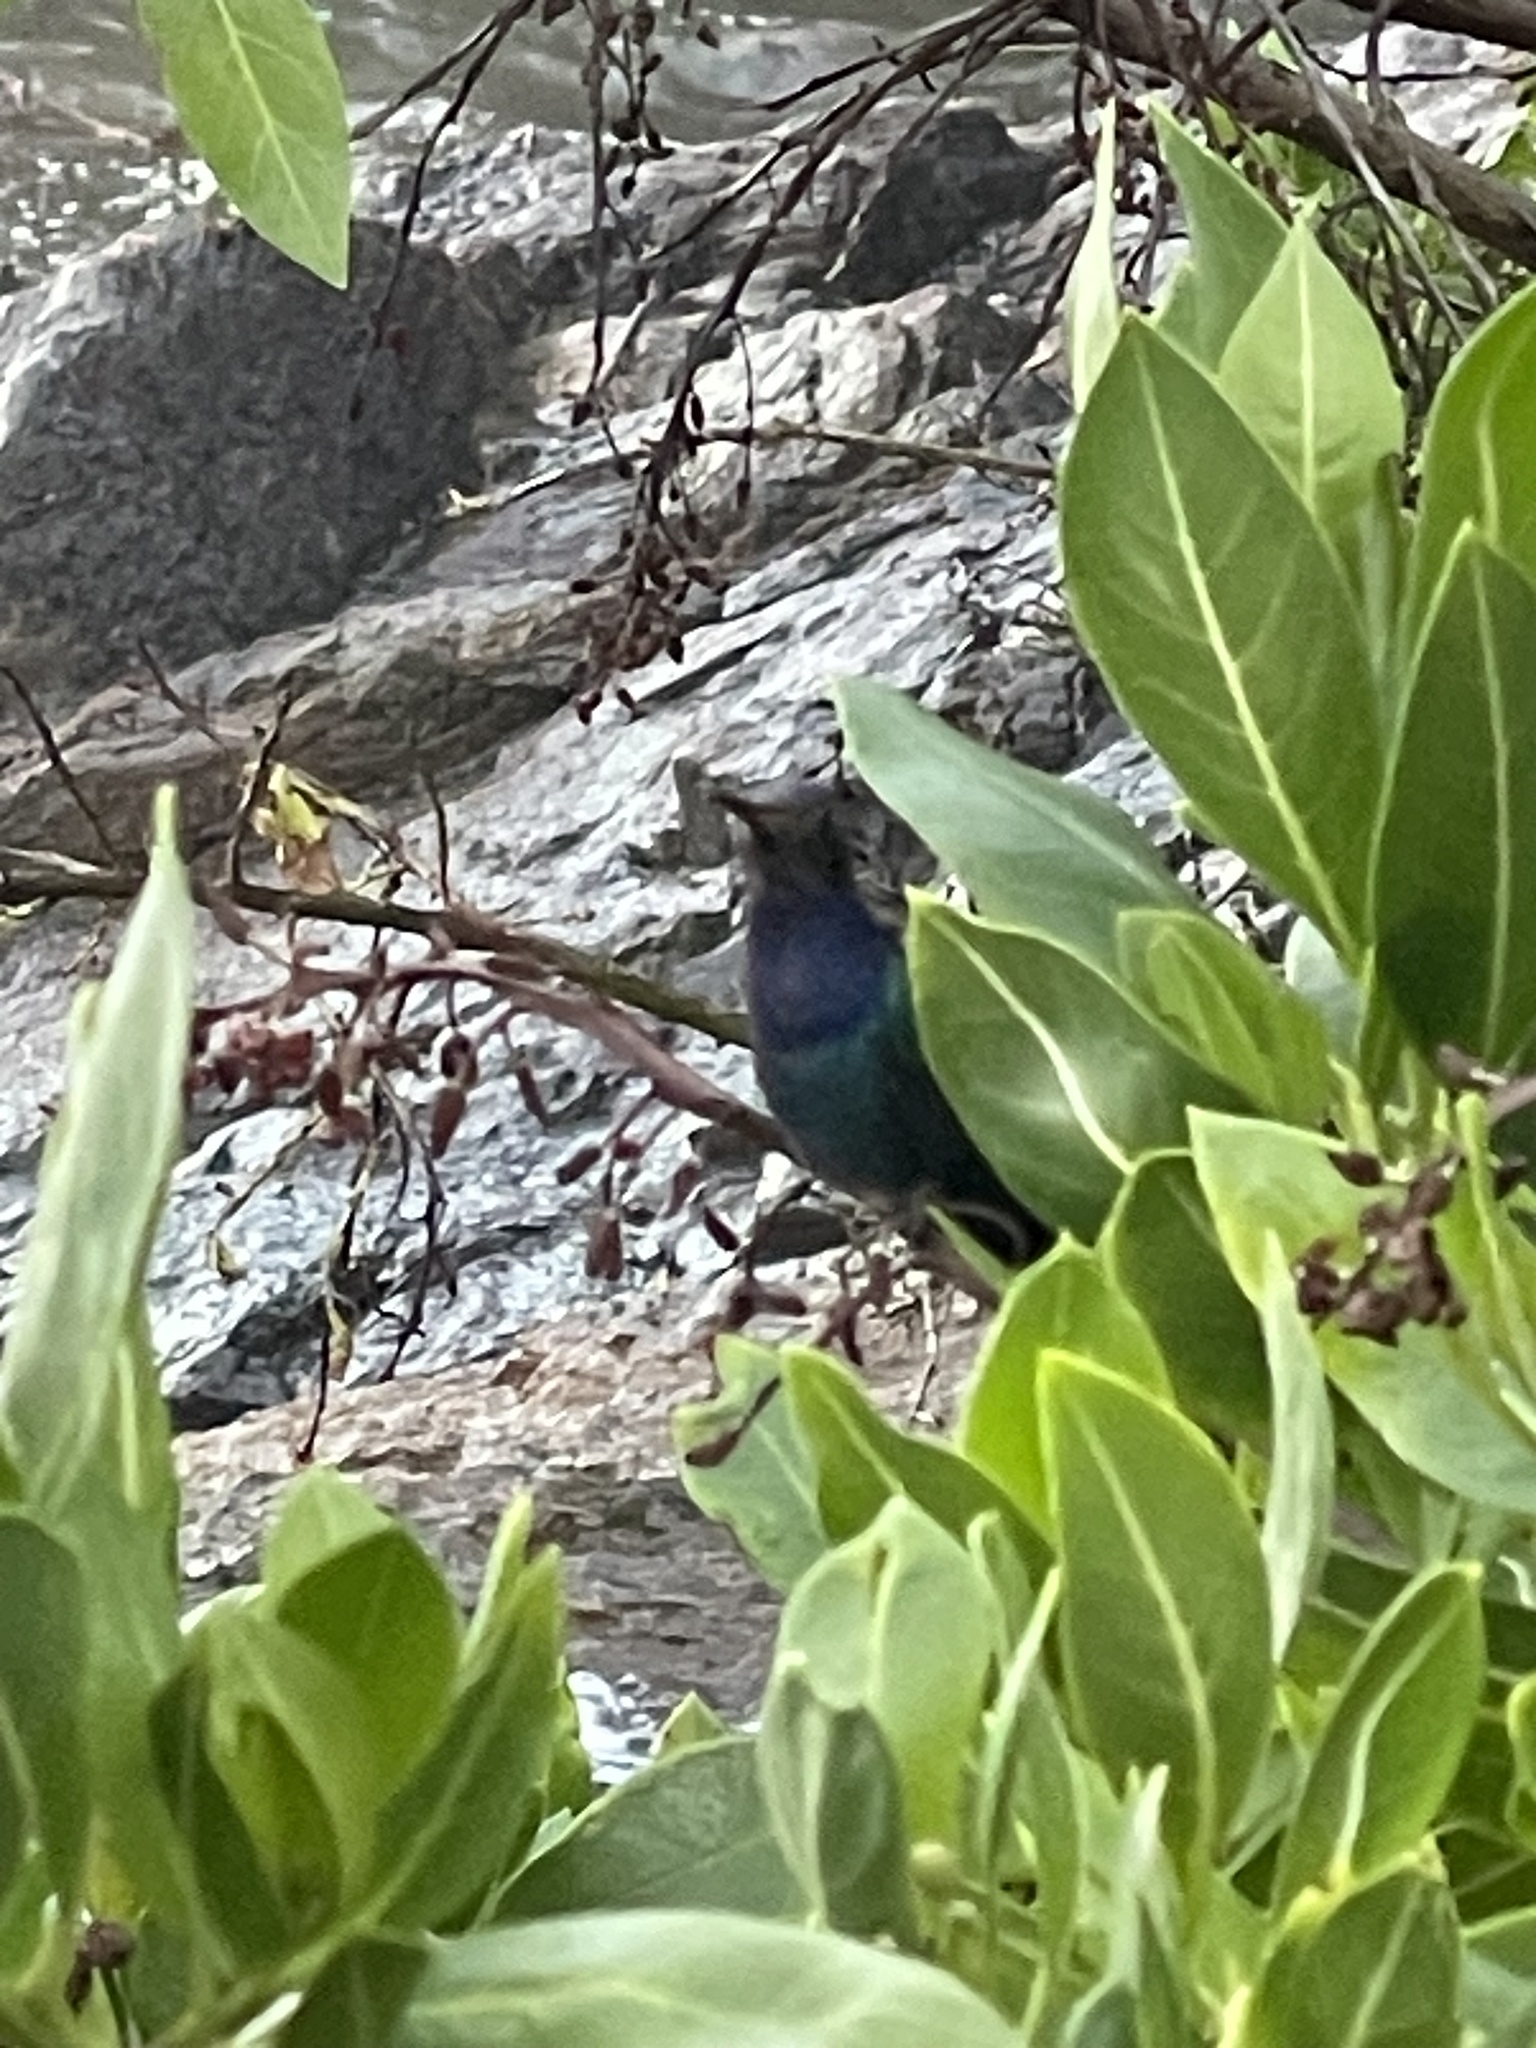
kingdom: Animalia
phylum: Chordata
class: Aves
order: Apodiformes
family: Trochilidae
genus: Eupetomena
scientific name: Eupetomena macroura
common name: Swallow-tailed hummingbird
